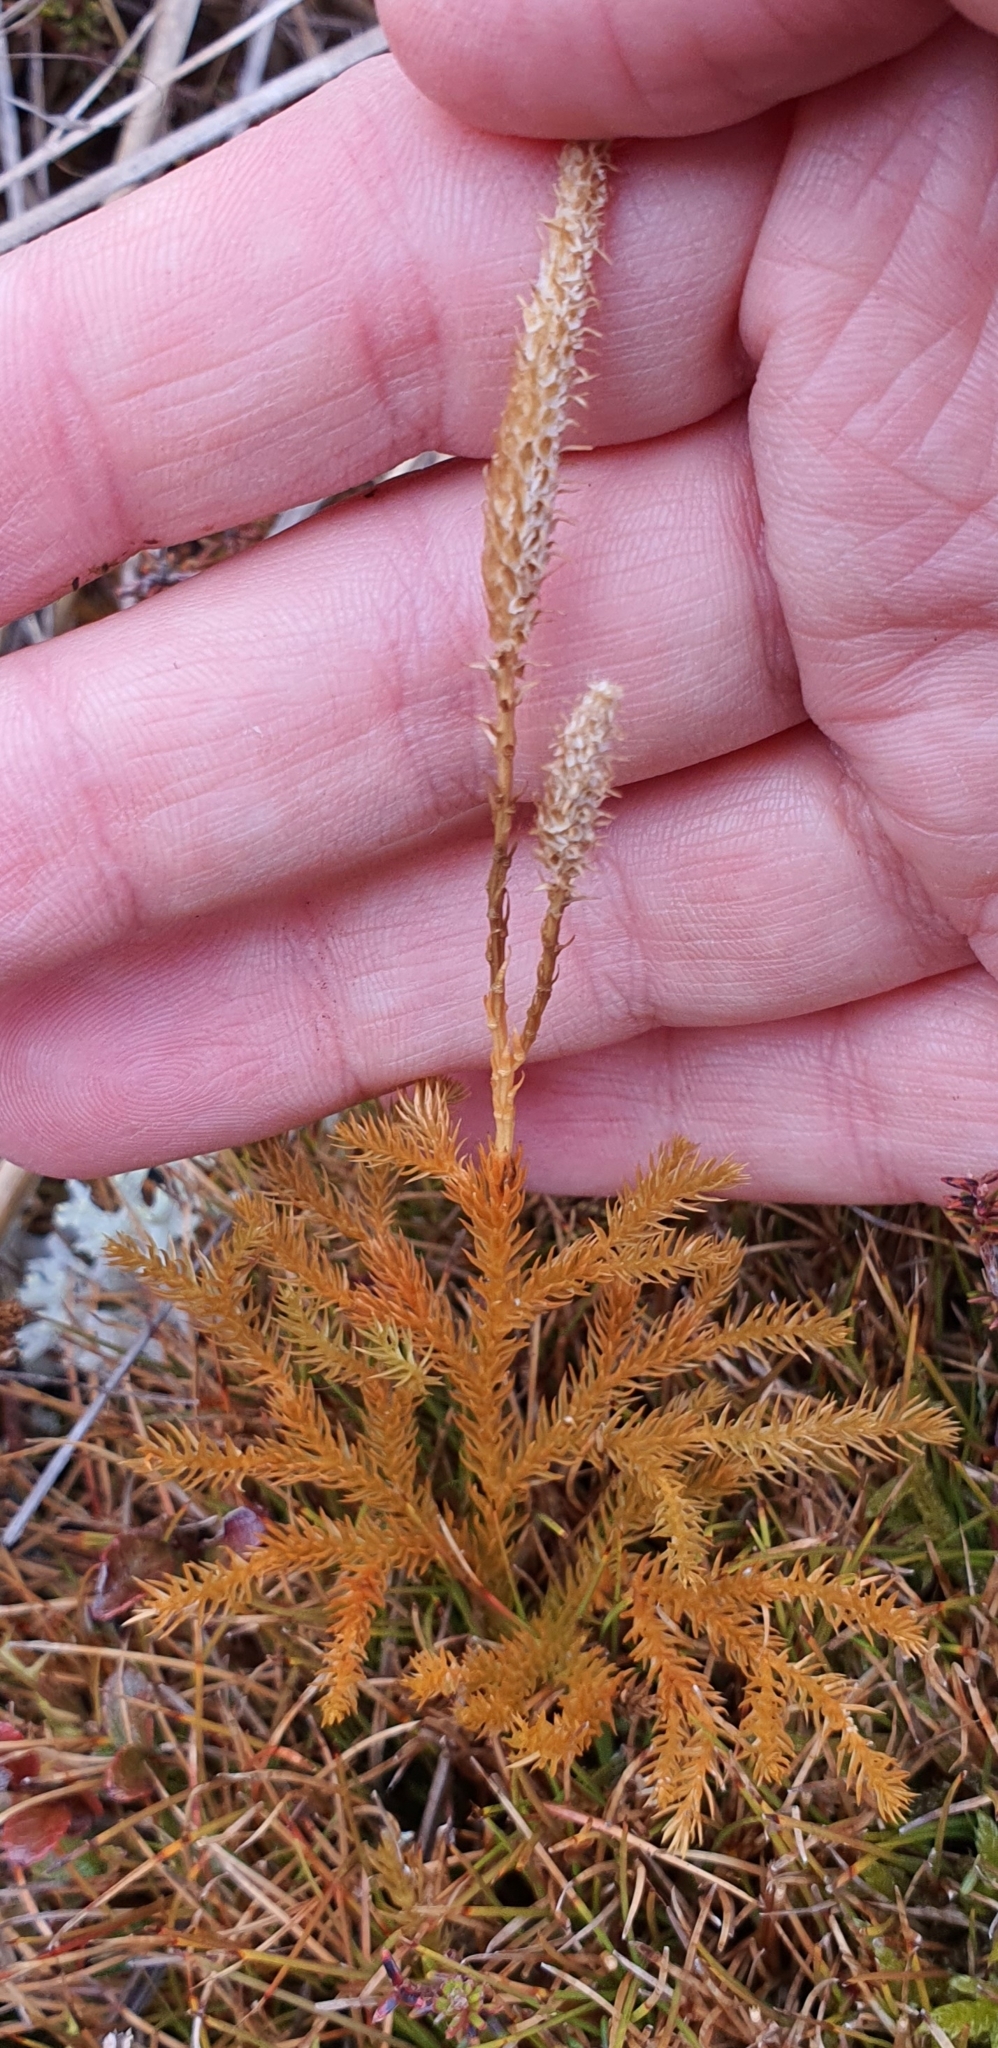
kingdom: Plantae
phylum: Tracheophyta
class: Lycopodiopsida
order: Lycopodiales
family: Lycopodiaceae
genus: Austrolycopodium
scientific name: Austrolycopodium fastigiatum
